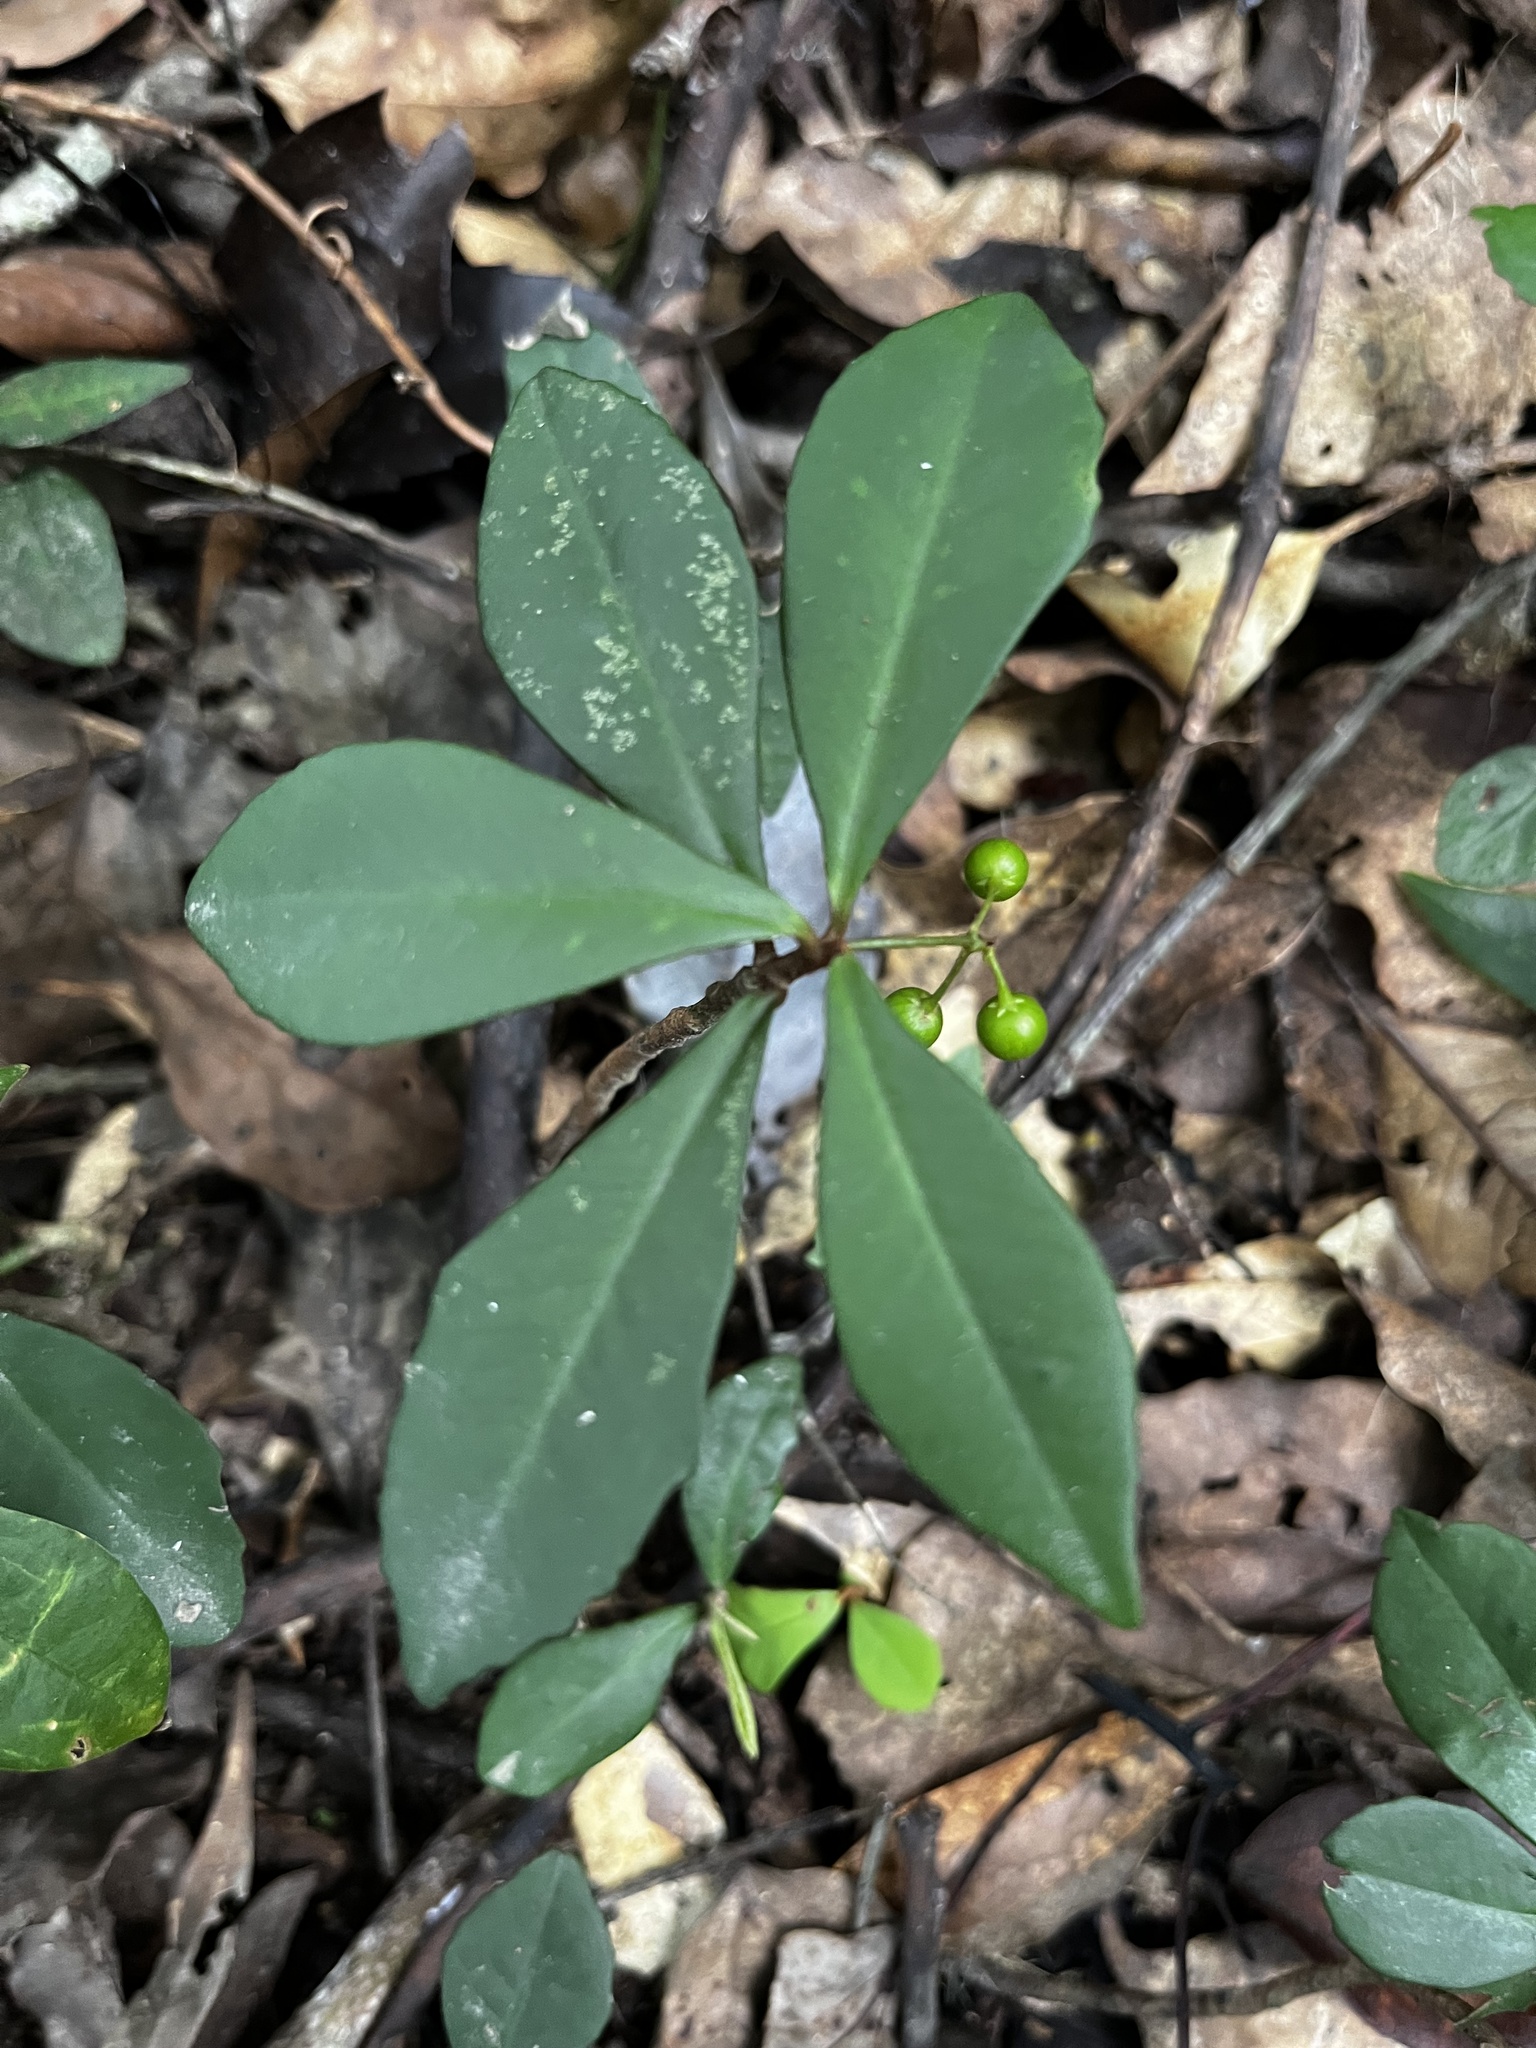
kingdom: Plantae
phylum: Tracheophyta
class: Magnoliopsida
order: Ericales
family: Primulaceae
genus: Ardisia
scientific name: Ardisia cymosa
